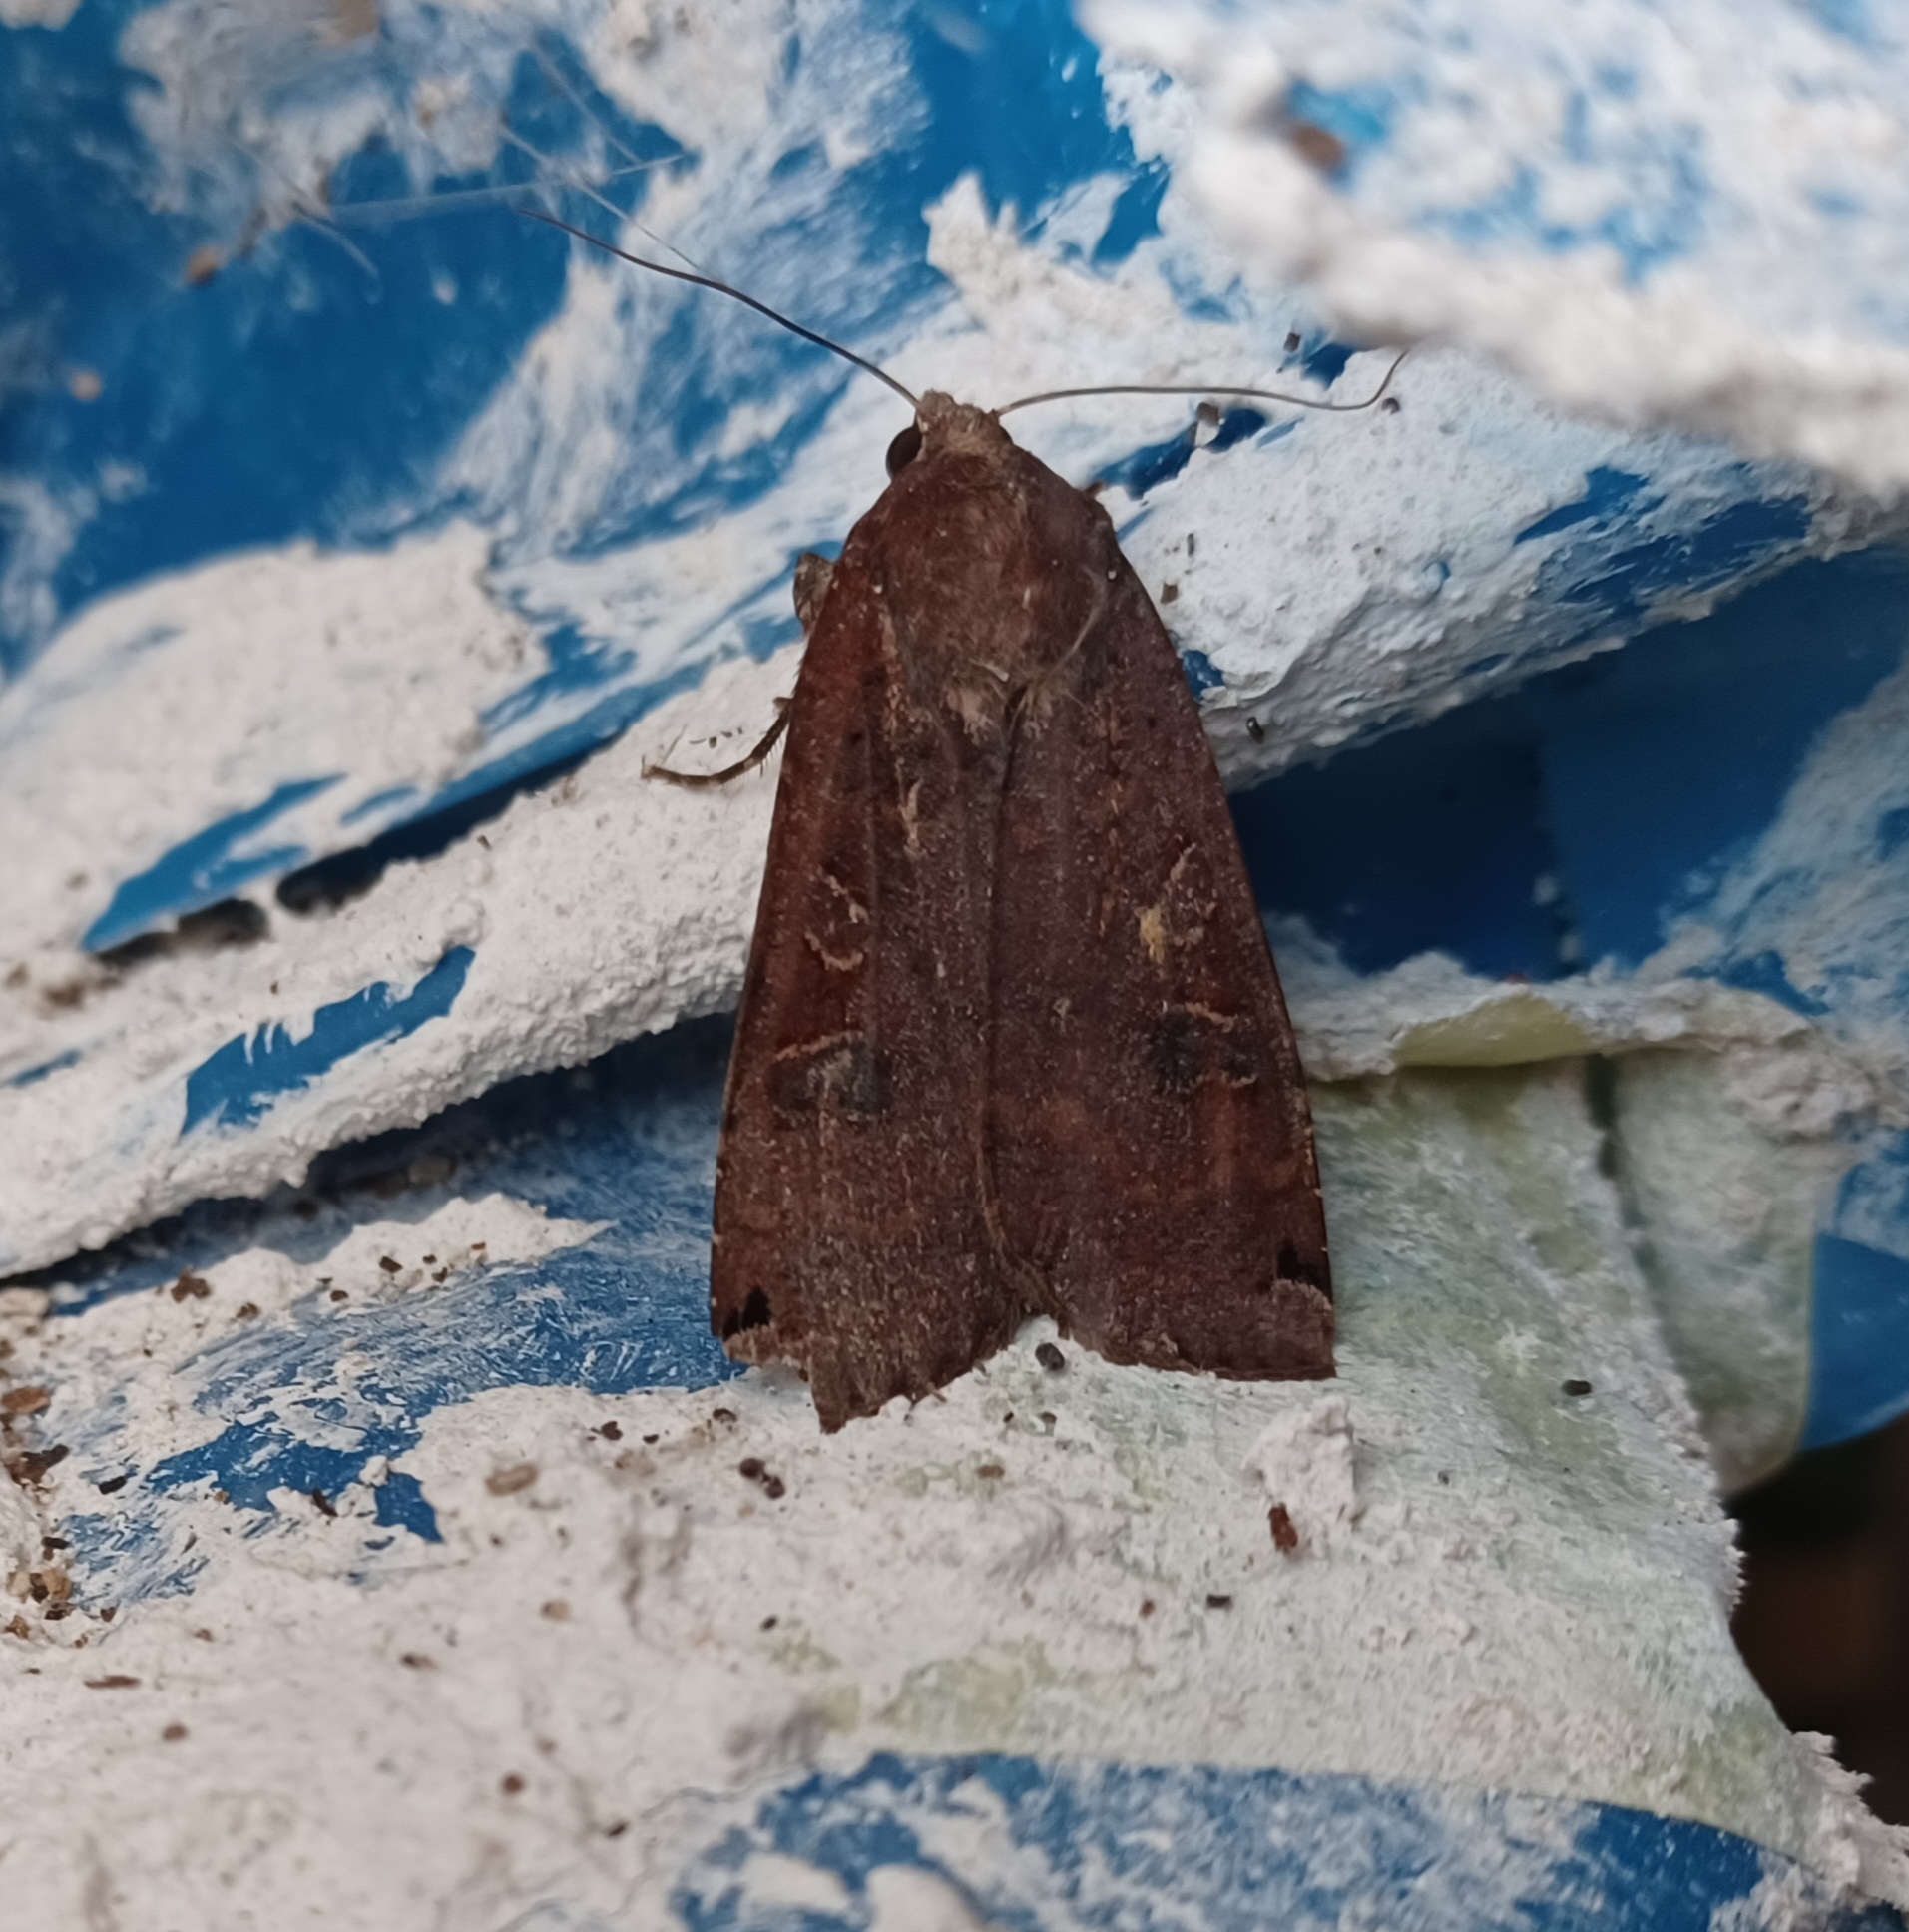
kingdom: Animalia
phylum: Arthropoda
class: Insecta
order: Lepidoptera
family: Noctuidae
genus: Noctua
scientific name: Noctua pronuba
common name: Large yellow underwing
